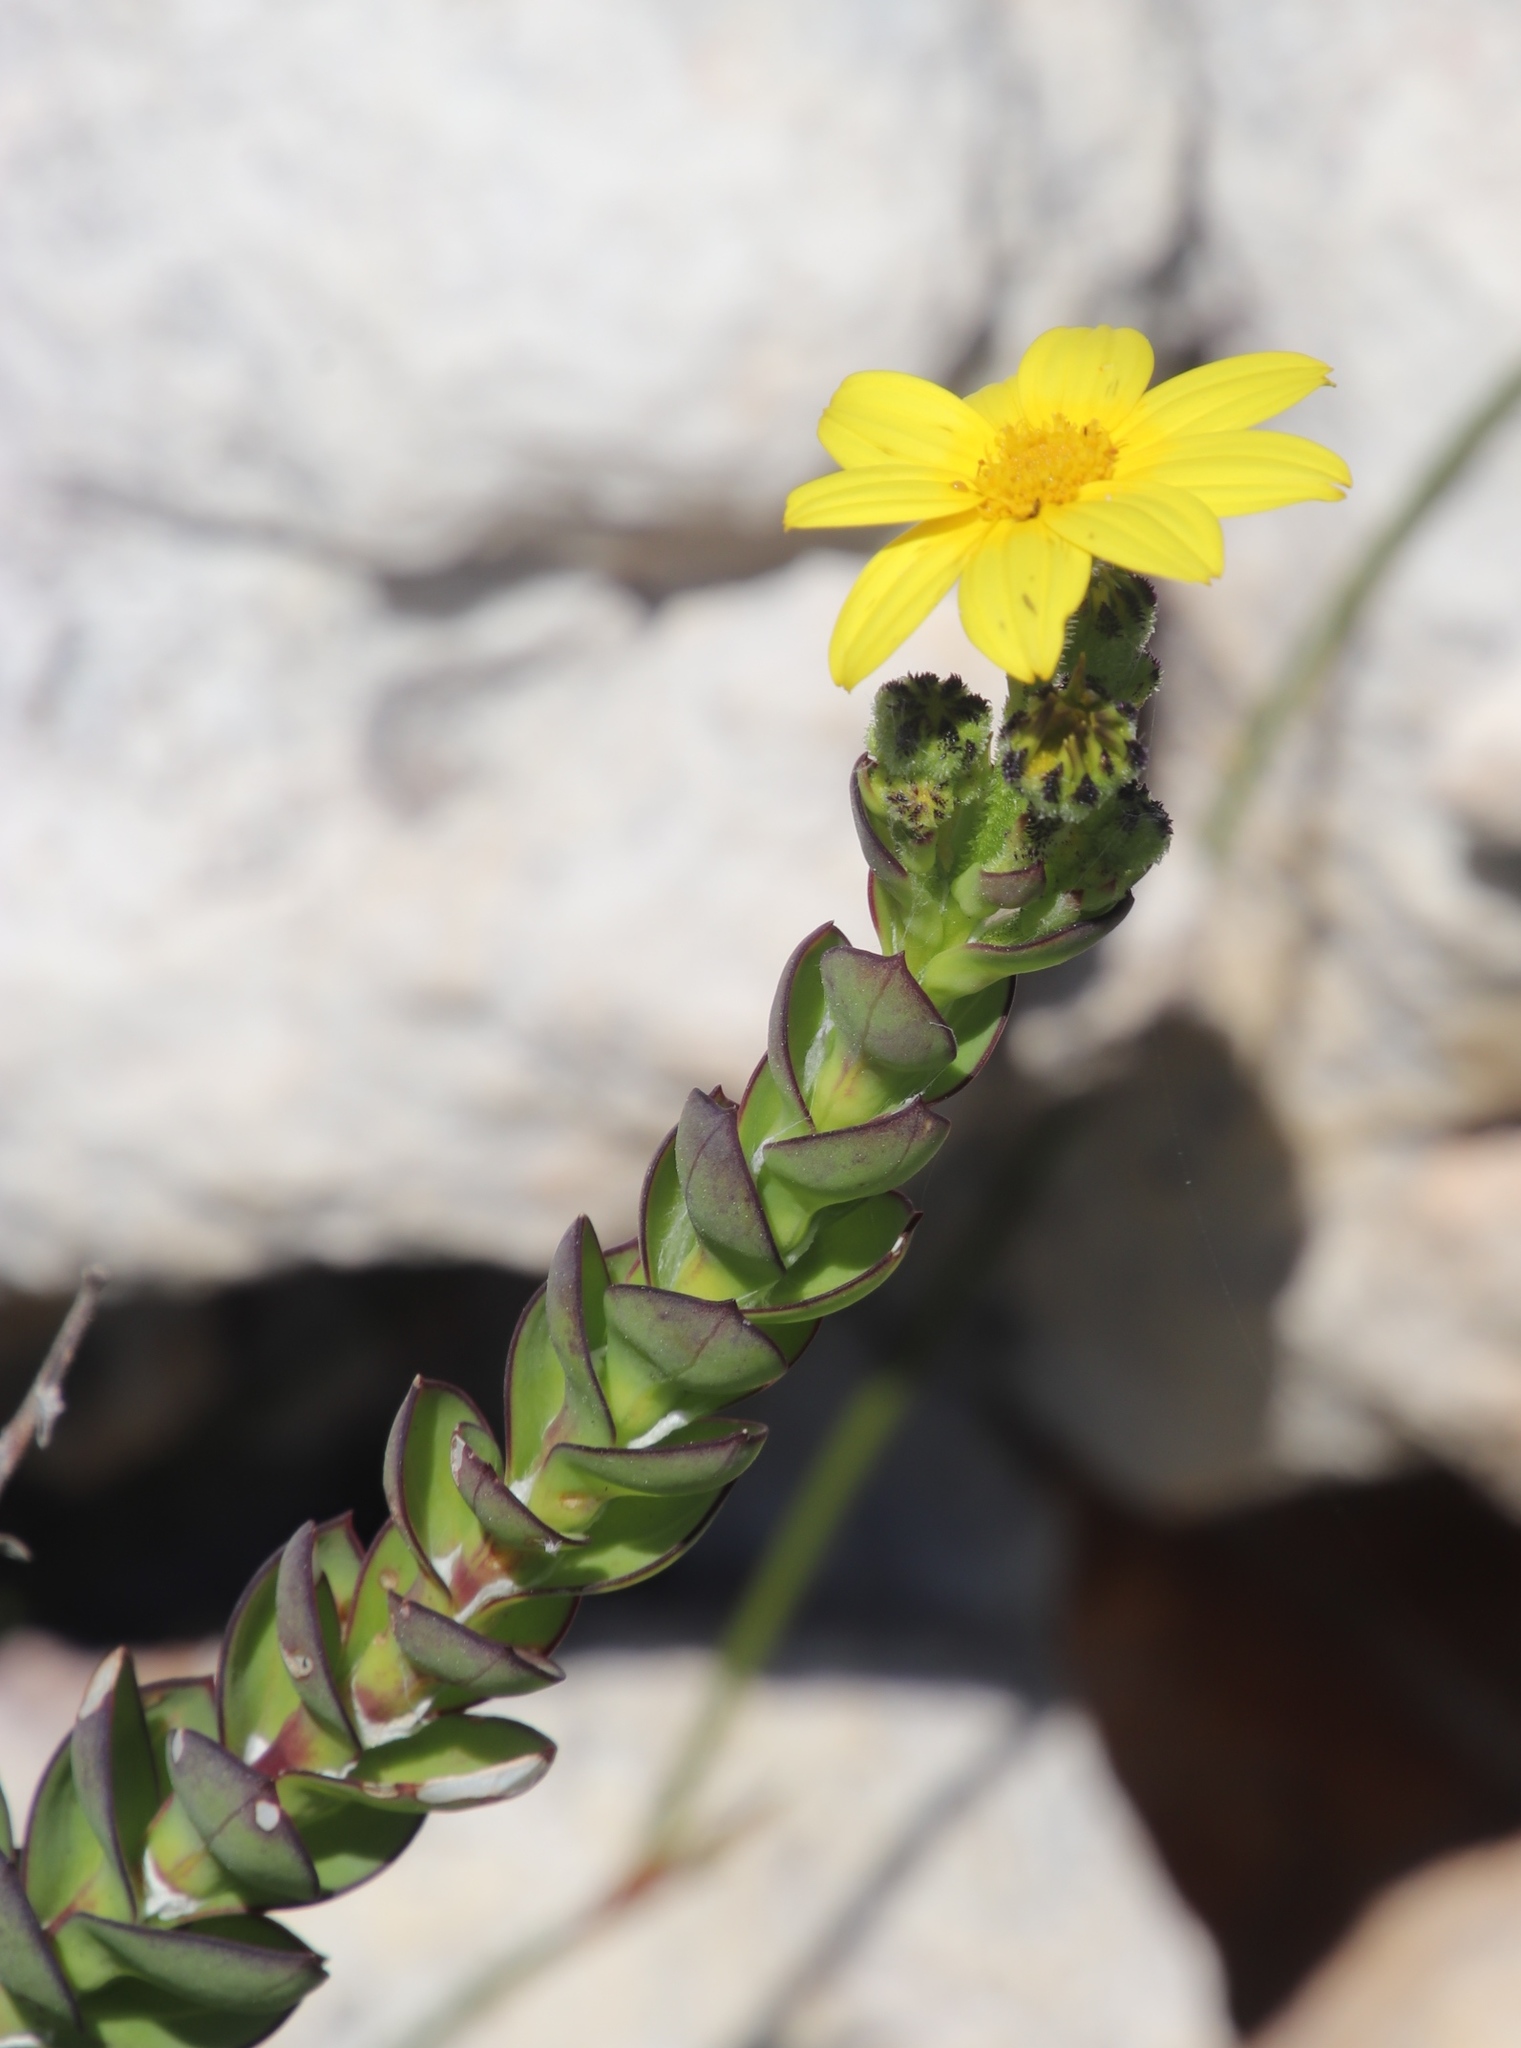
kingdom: Plantae
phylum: Tracheophyta
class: Magnoliopsida
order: Asterales
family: Asteraceae
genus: Osteospermum
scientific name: Osteospermum rotundifolium
